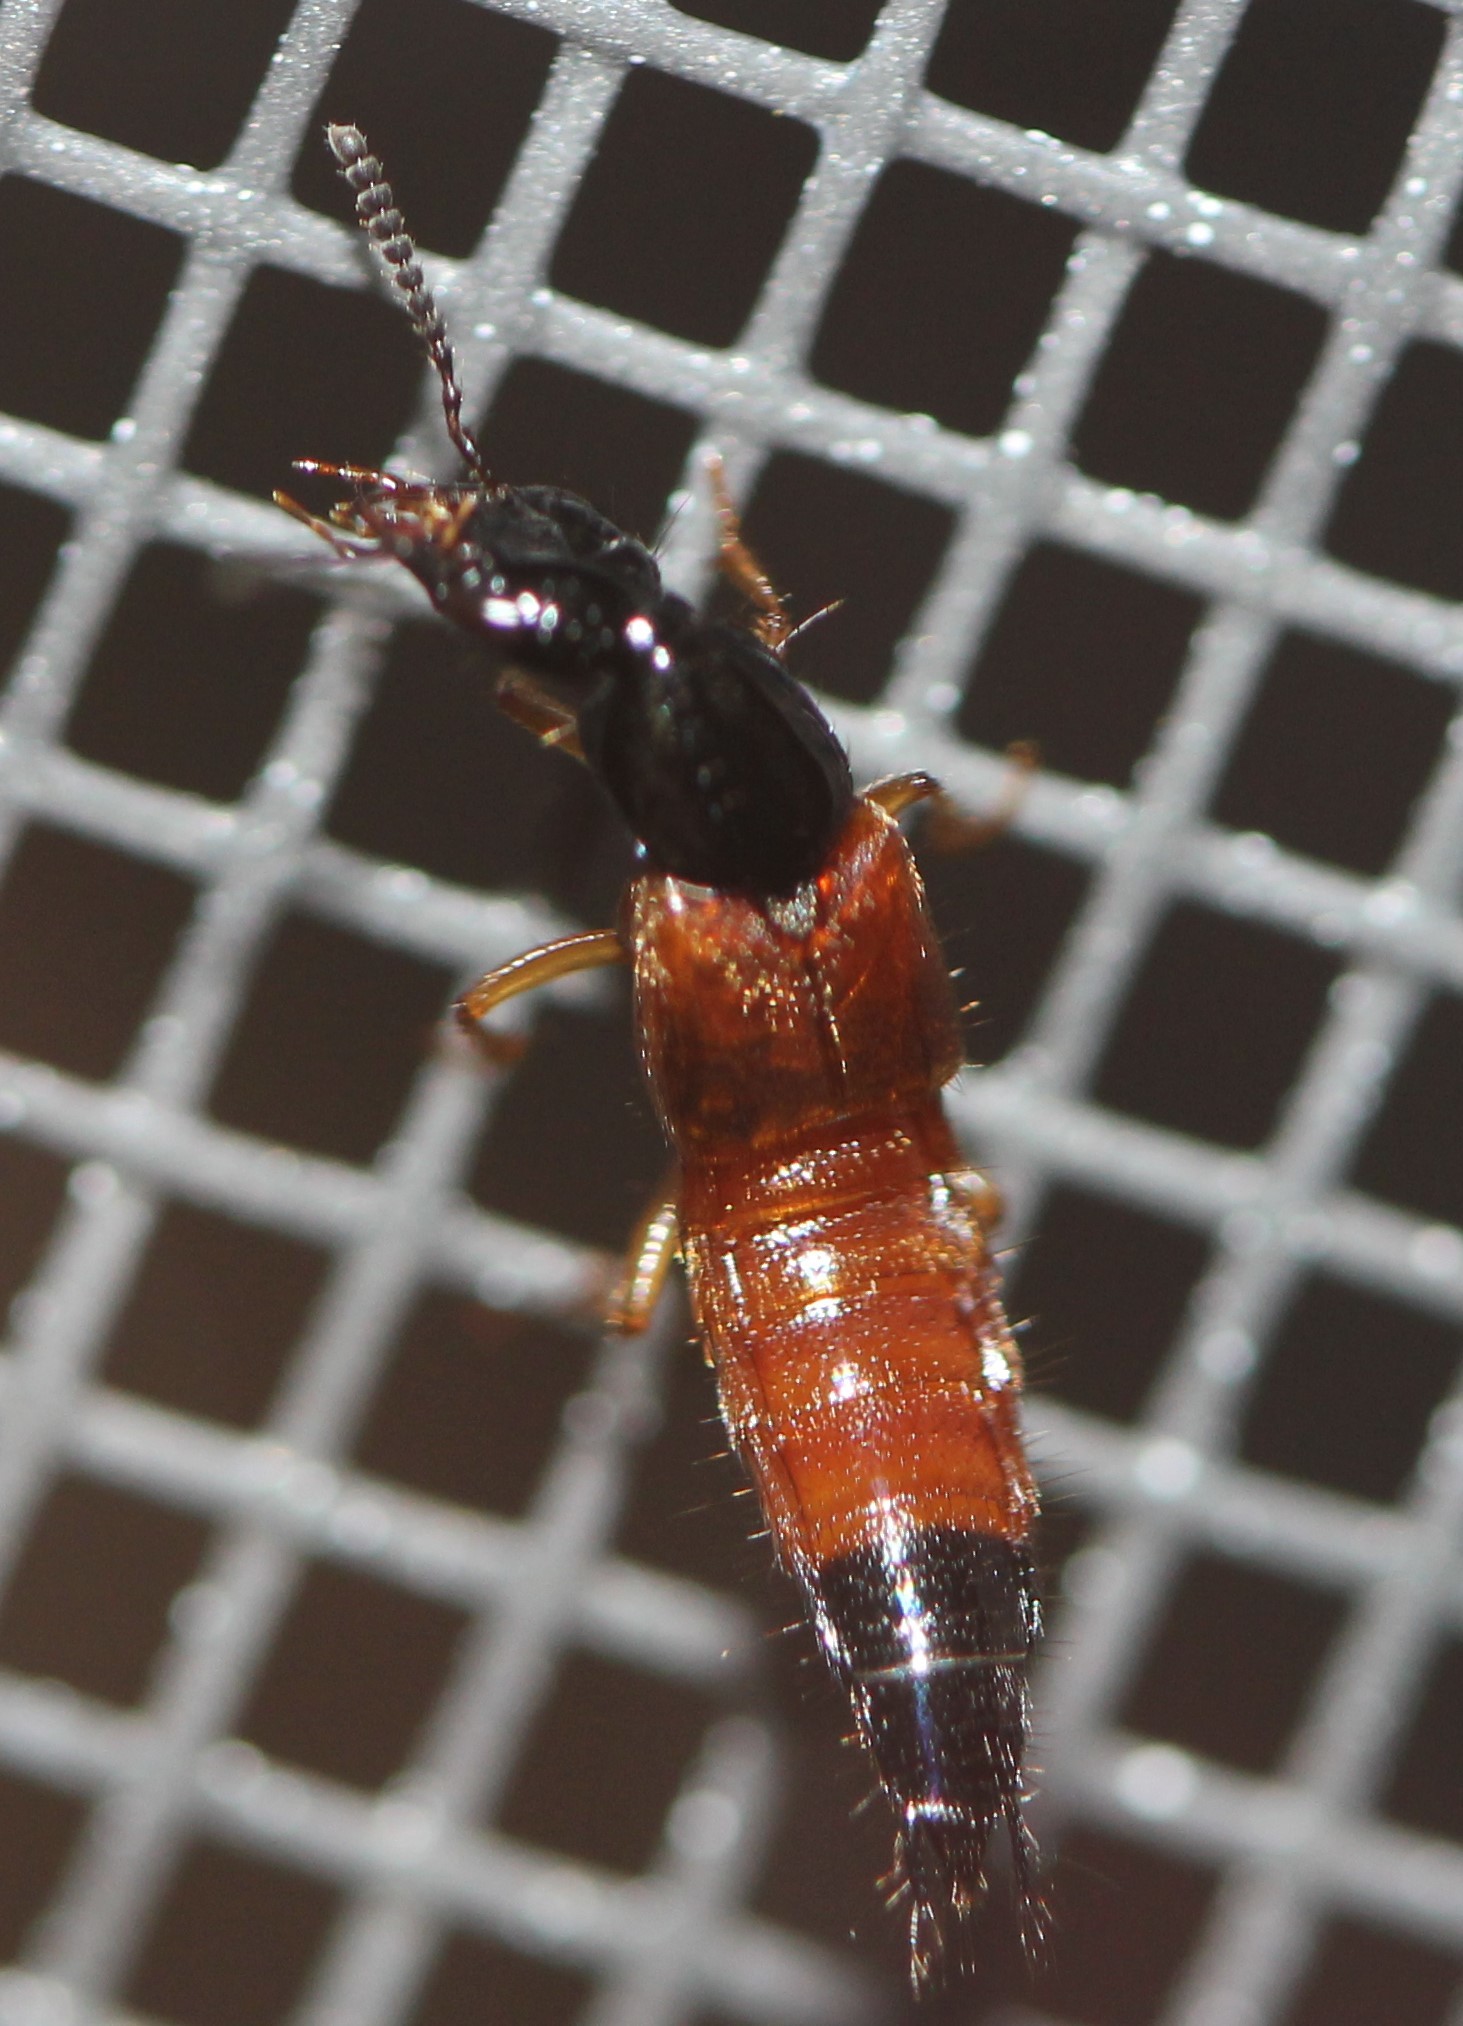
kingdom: Animalia
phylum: Arthropoda
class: Insecta
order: Coleoptera
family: Staphylinidae
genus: Belonuchus
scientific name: Belonuchus rufipennis
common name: Large rove beetle
